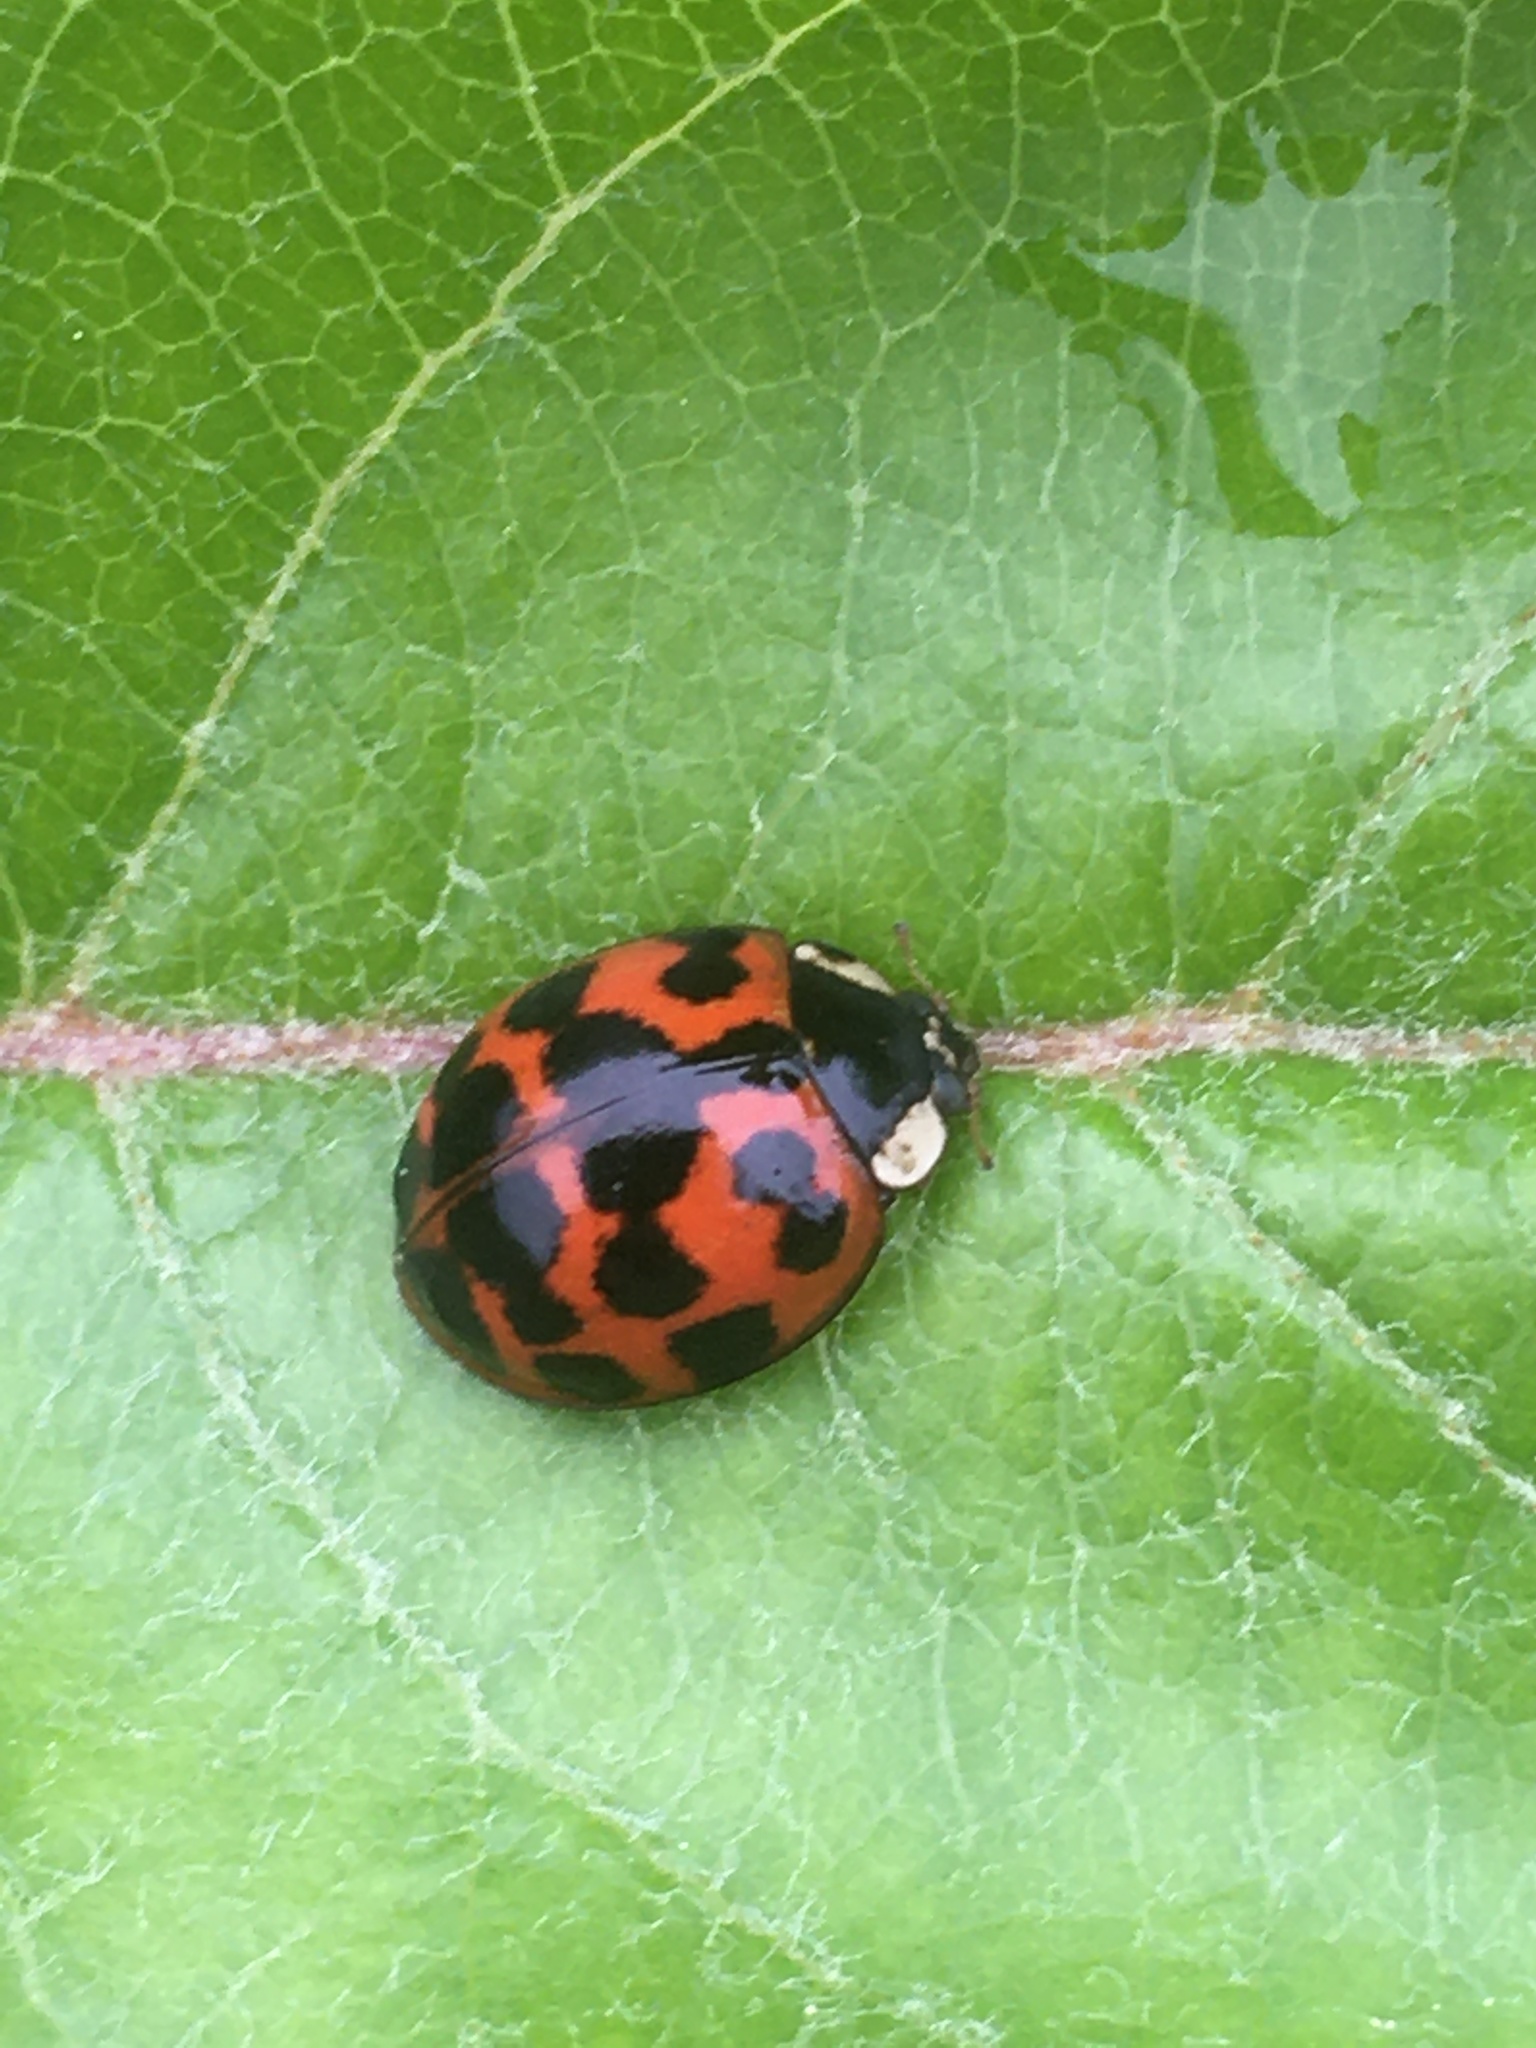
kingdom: Animalia
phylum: Arthropoda
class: Insecta
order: Coleoptera
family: Coccinellidae
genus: Harmonia
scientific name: Harmonia axyridis
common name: Harlequin ladybird
